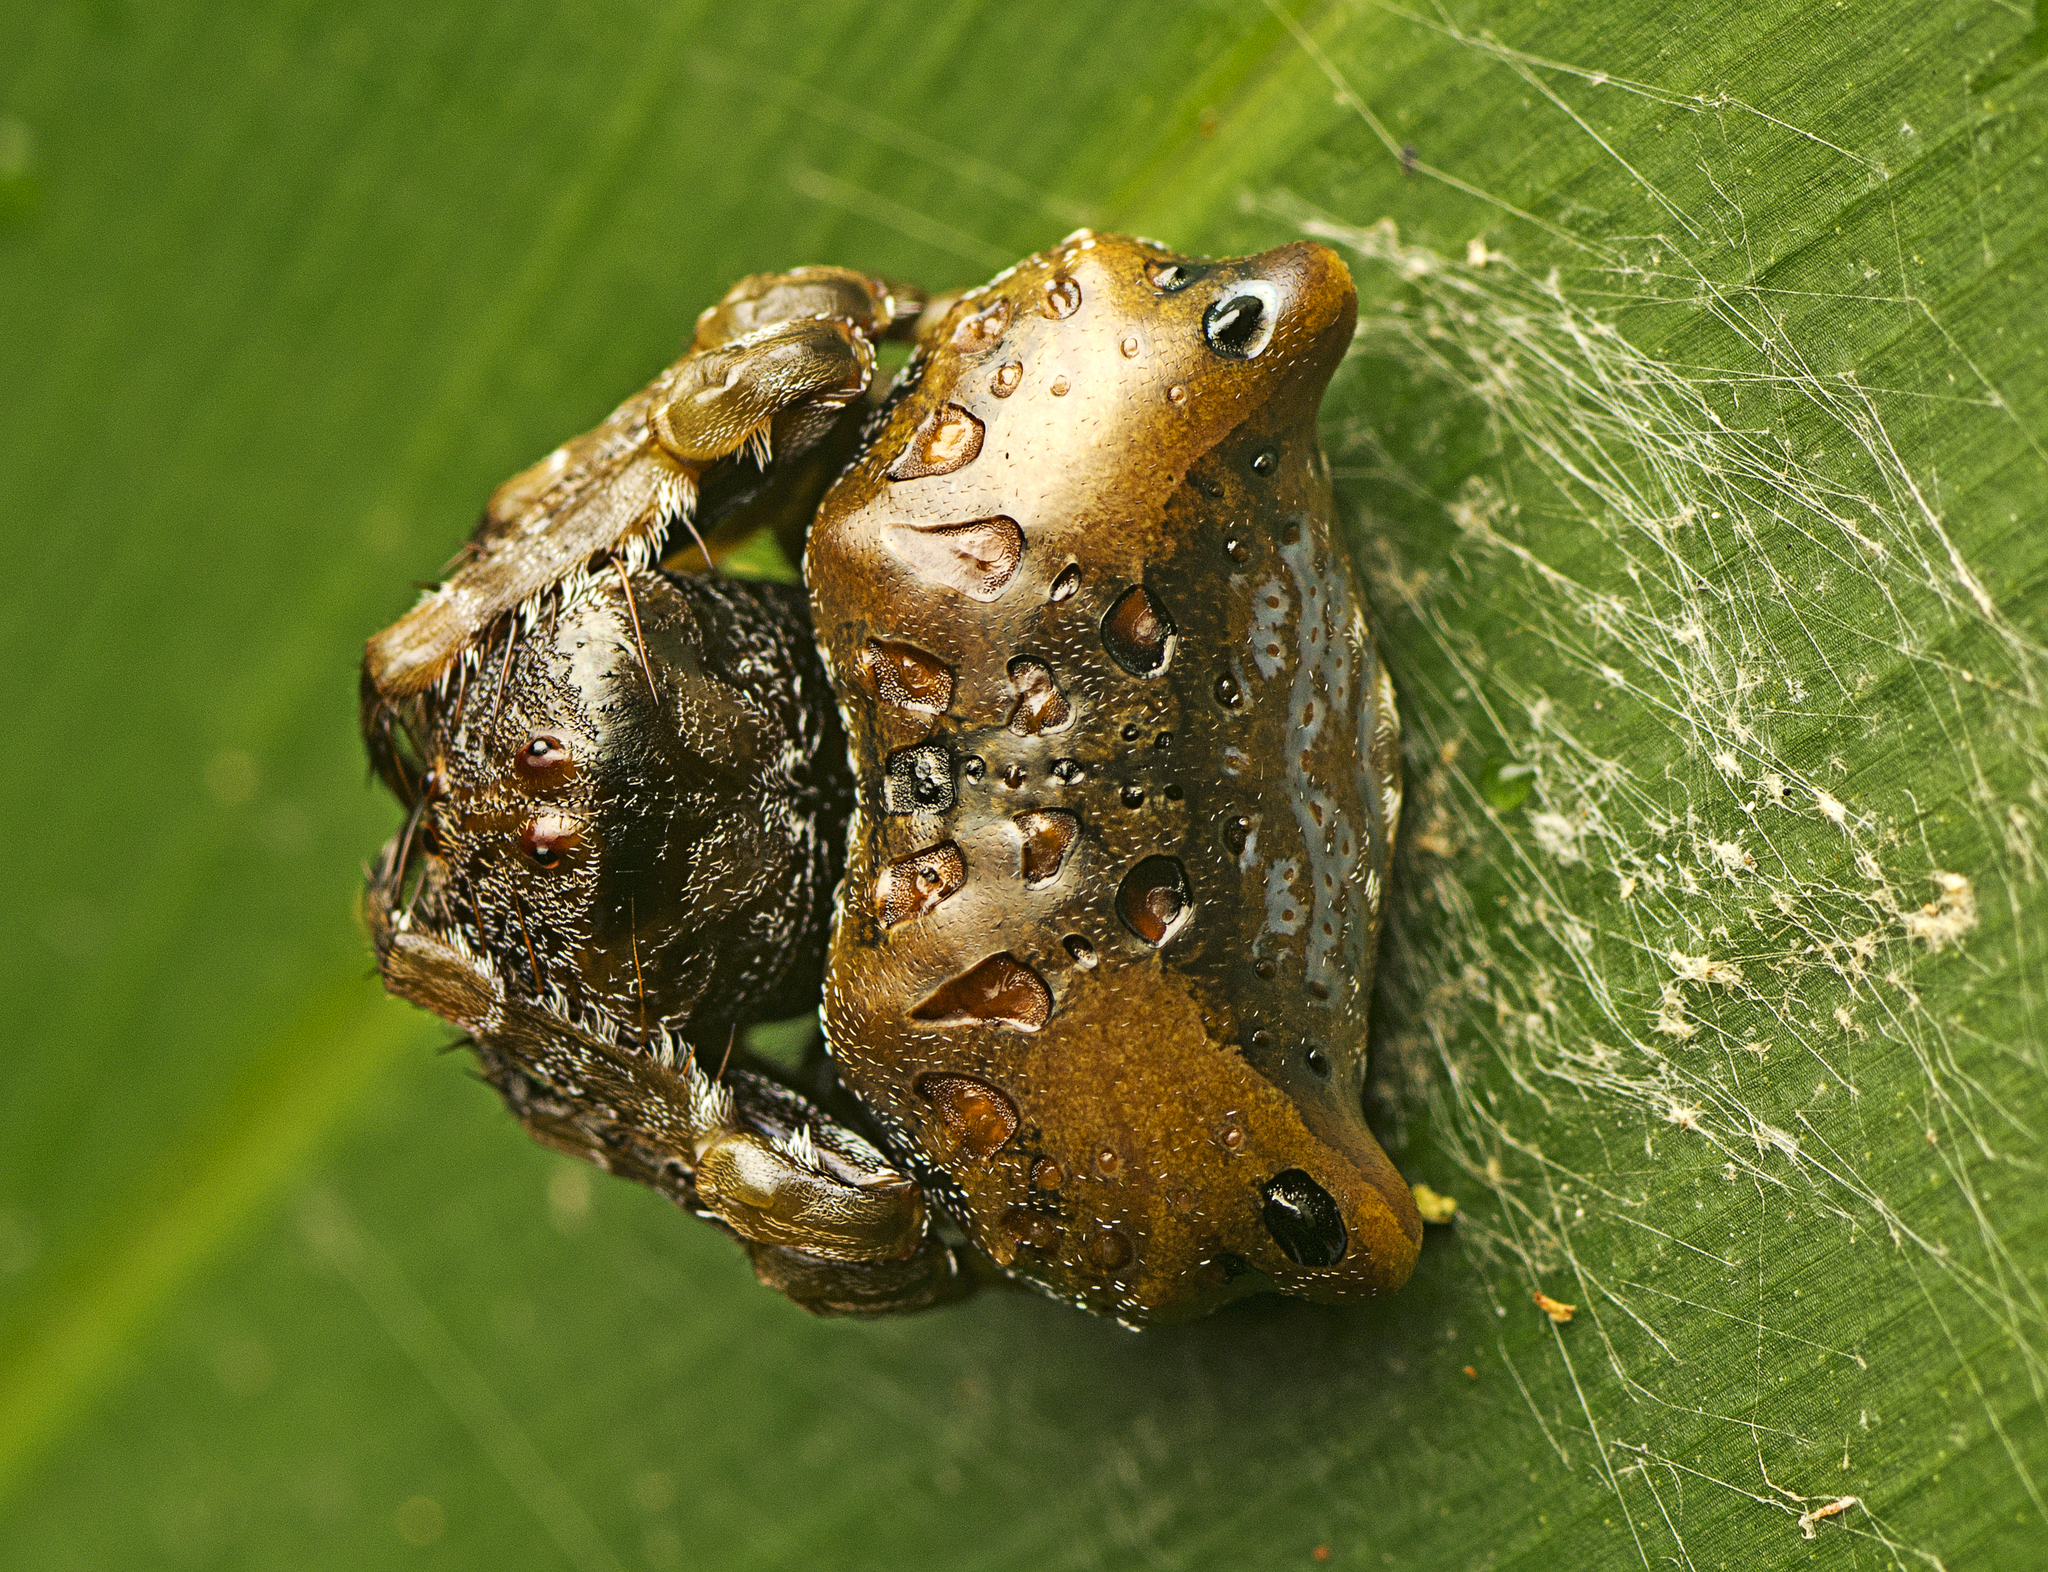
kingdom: Animalia
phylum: Arthropoda
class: Arachnida
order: Araneae
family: Arkyidae
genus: Arkys
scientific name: Arkys curtulus
